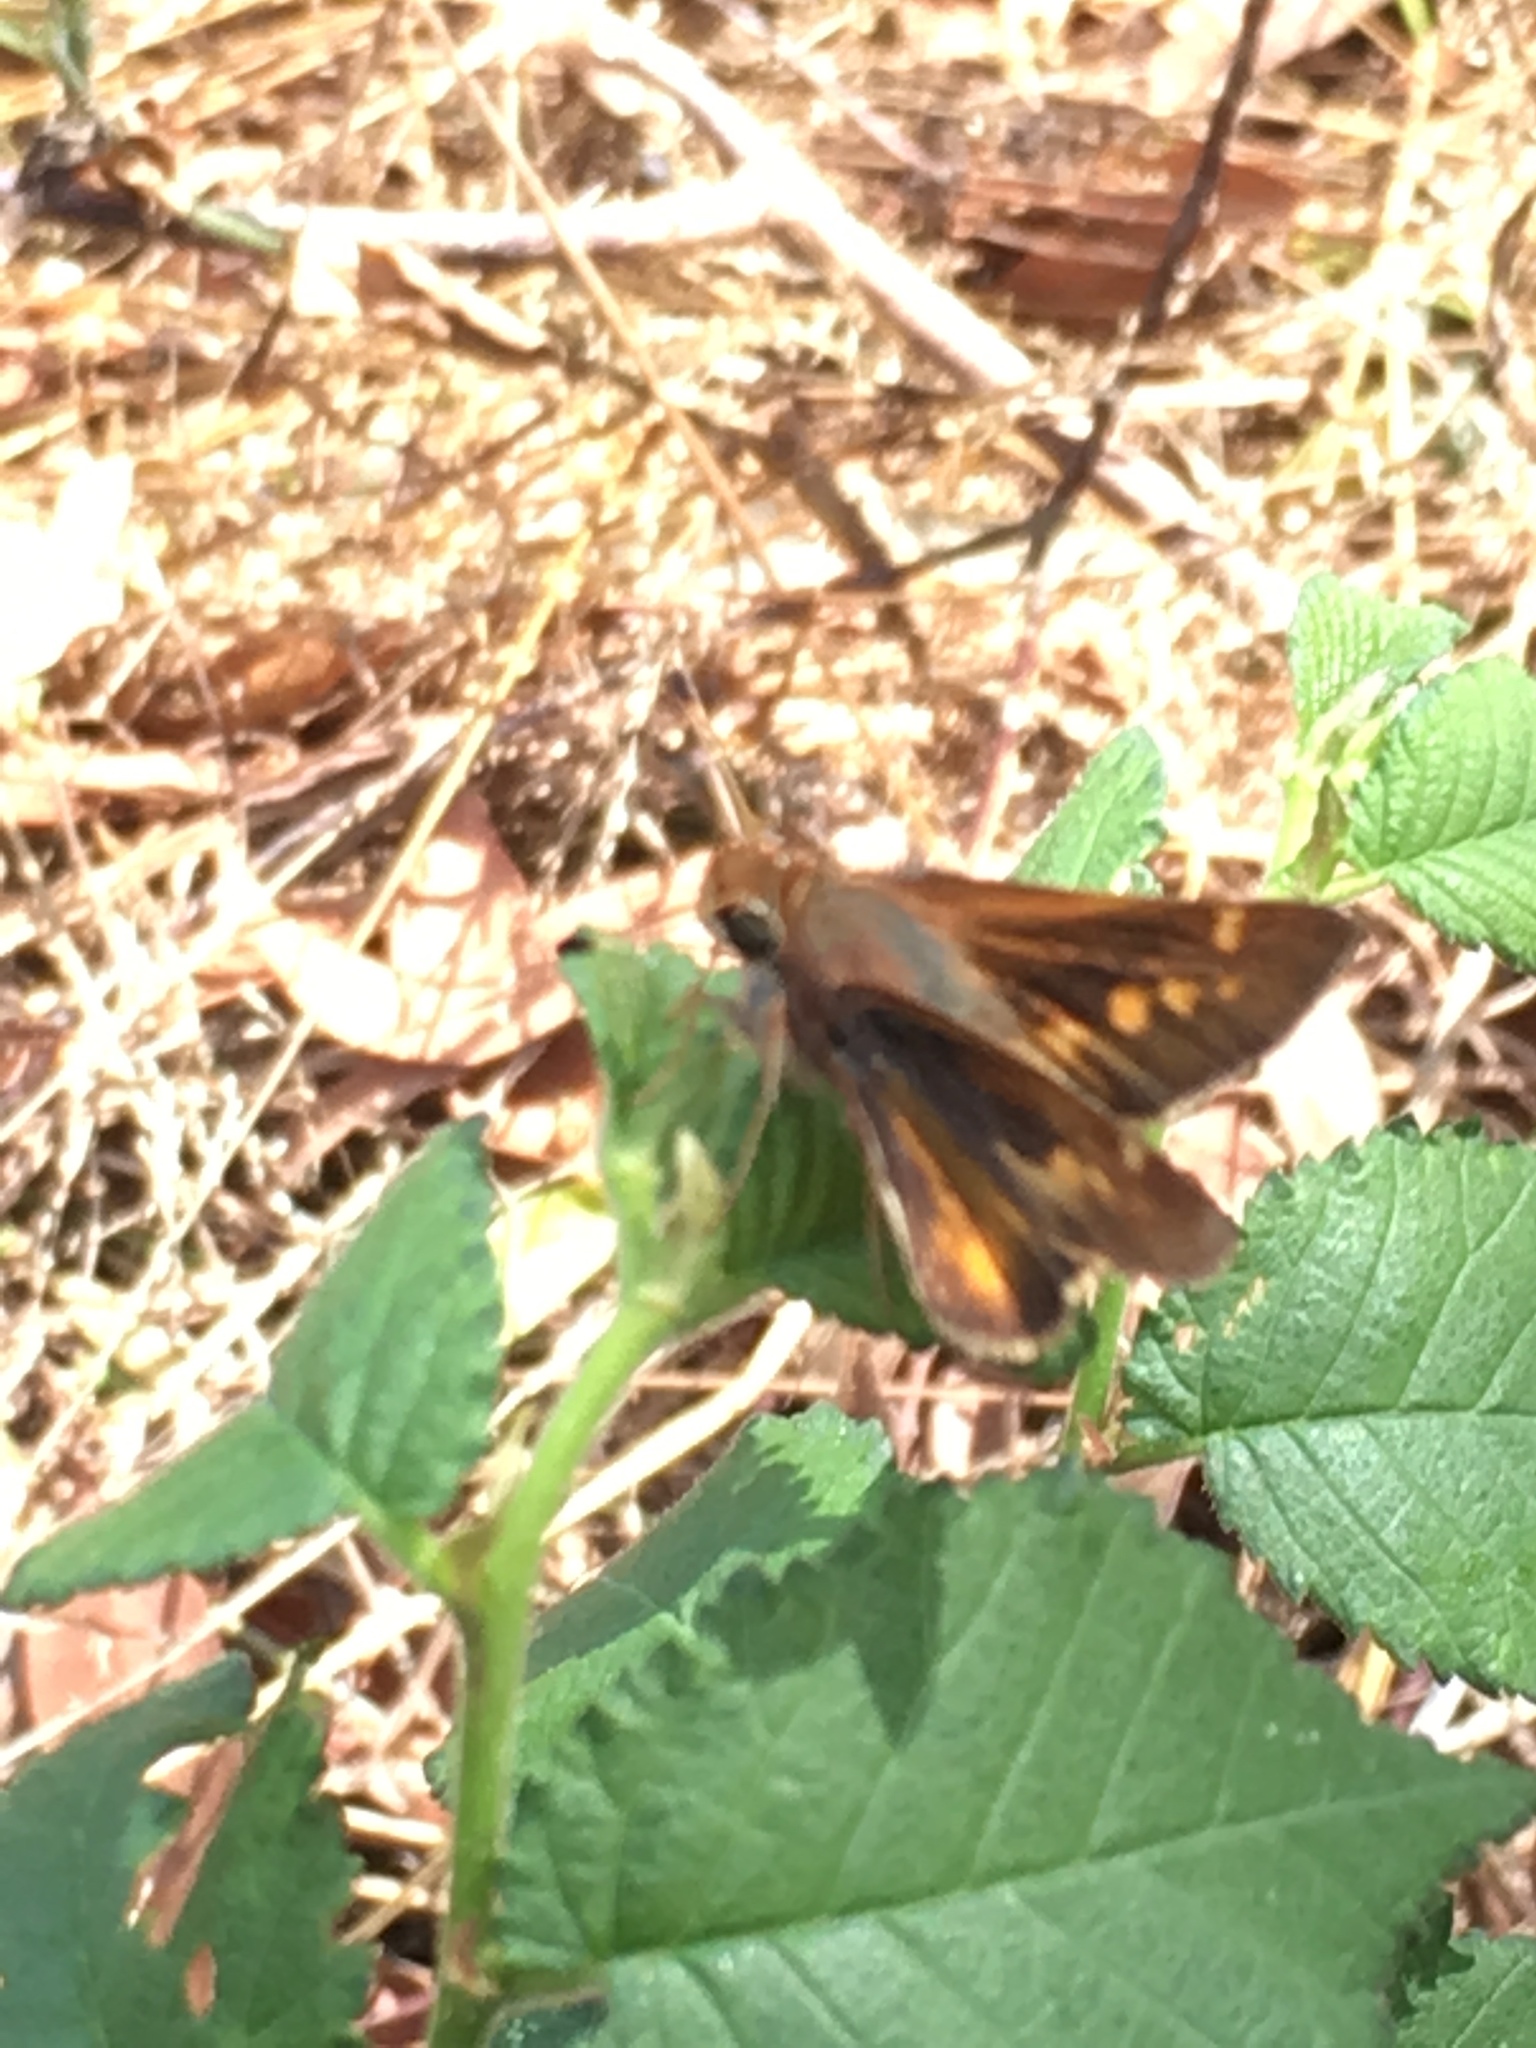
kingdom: Animalia
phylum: Arthropoda
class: Insecta
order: Lepidoptera
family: Hesperiidae
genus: Lon
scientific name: Lon melane
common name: Umber skipper
